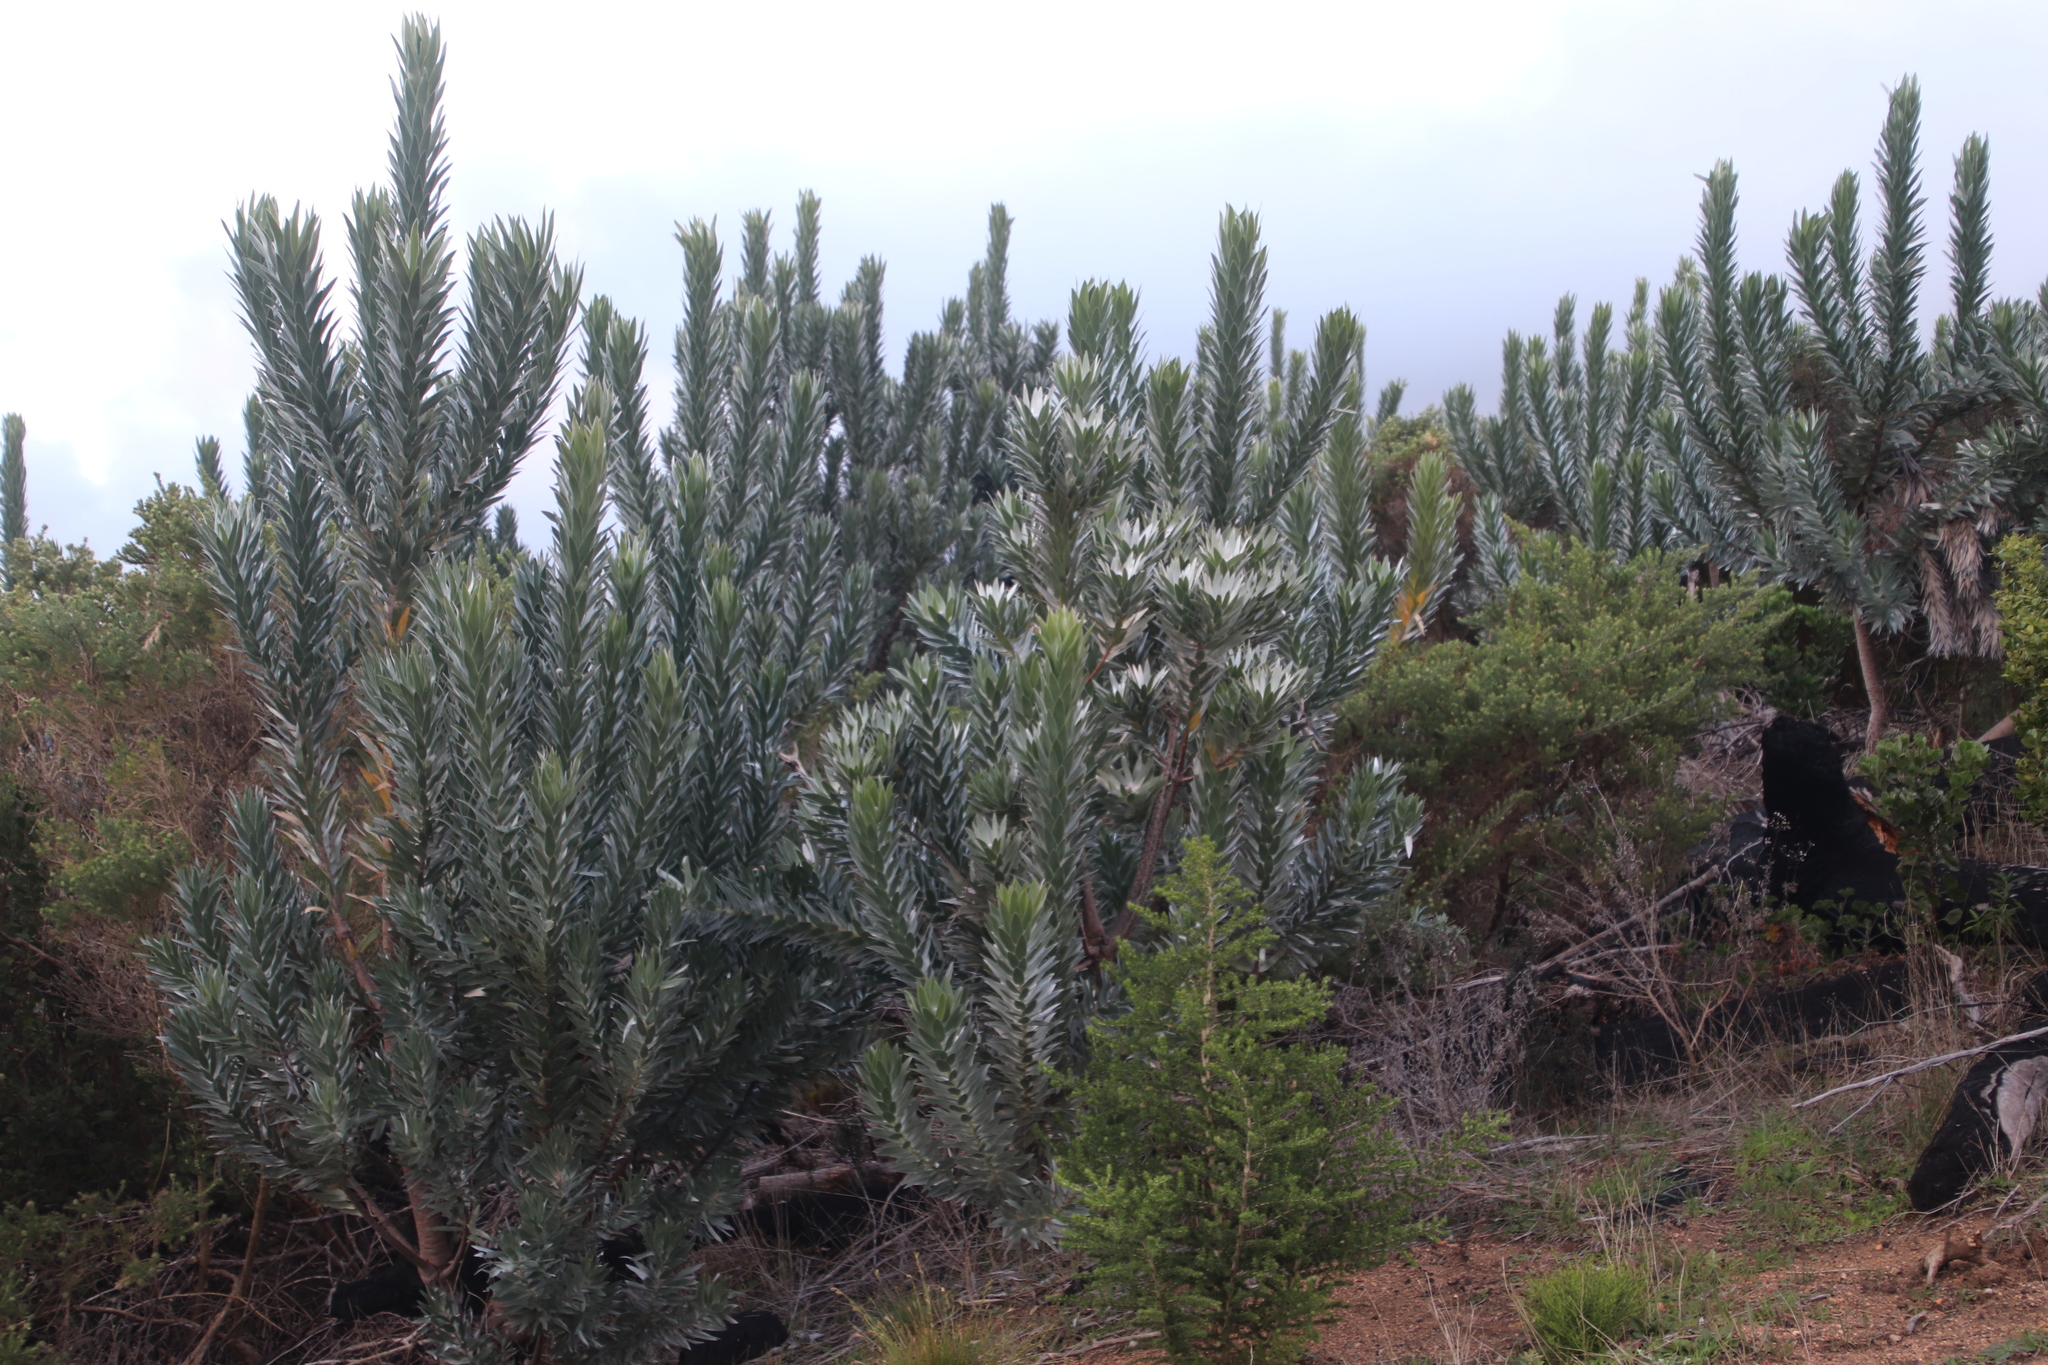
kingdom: Plantae
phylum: Tracheophyta
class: Magnoliopsida
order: Proteales
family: Proteaceae
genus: Leucadendron
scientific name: Leucadendron argenteum
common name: Cape silver tree
